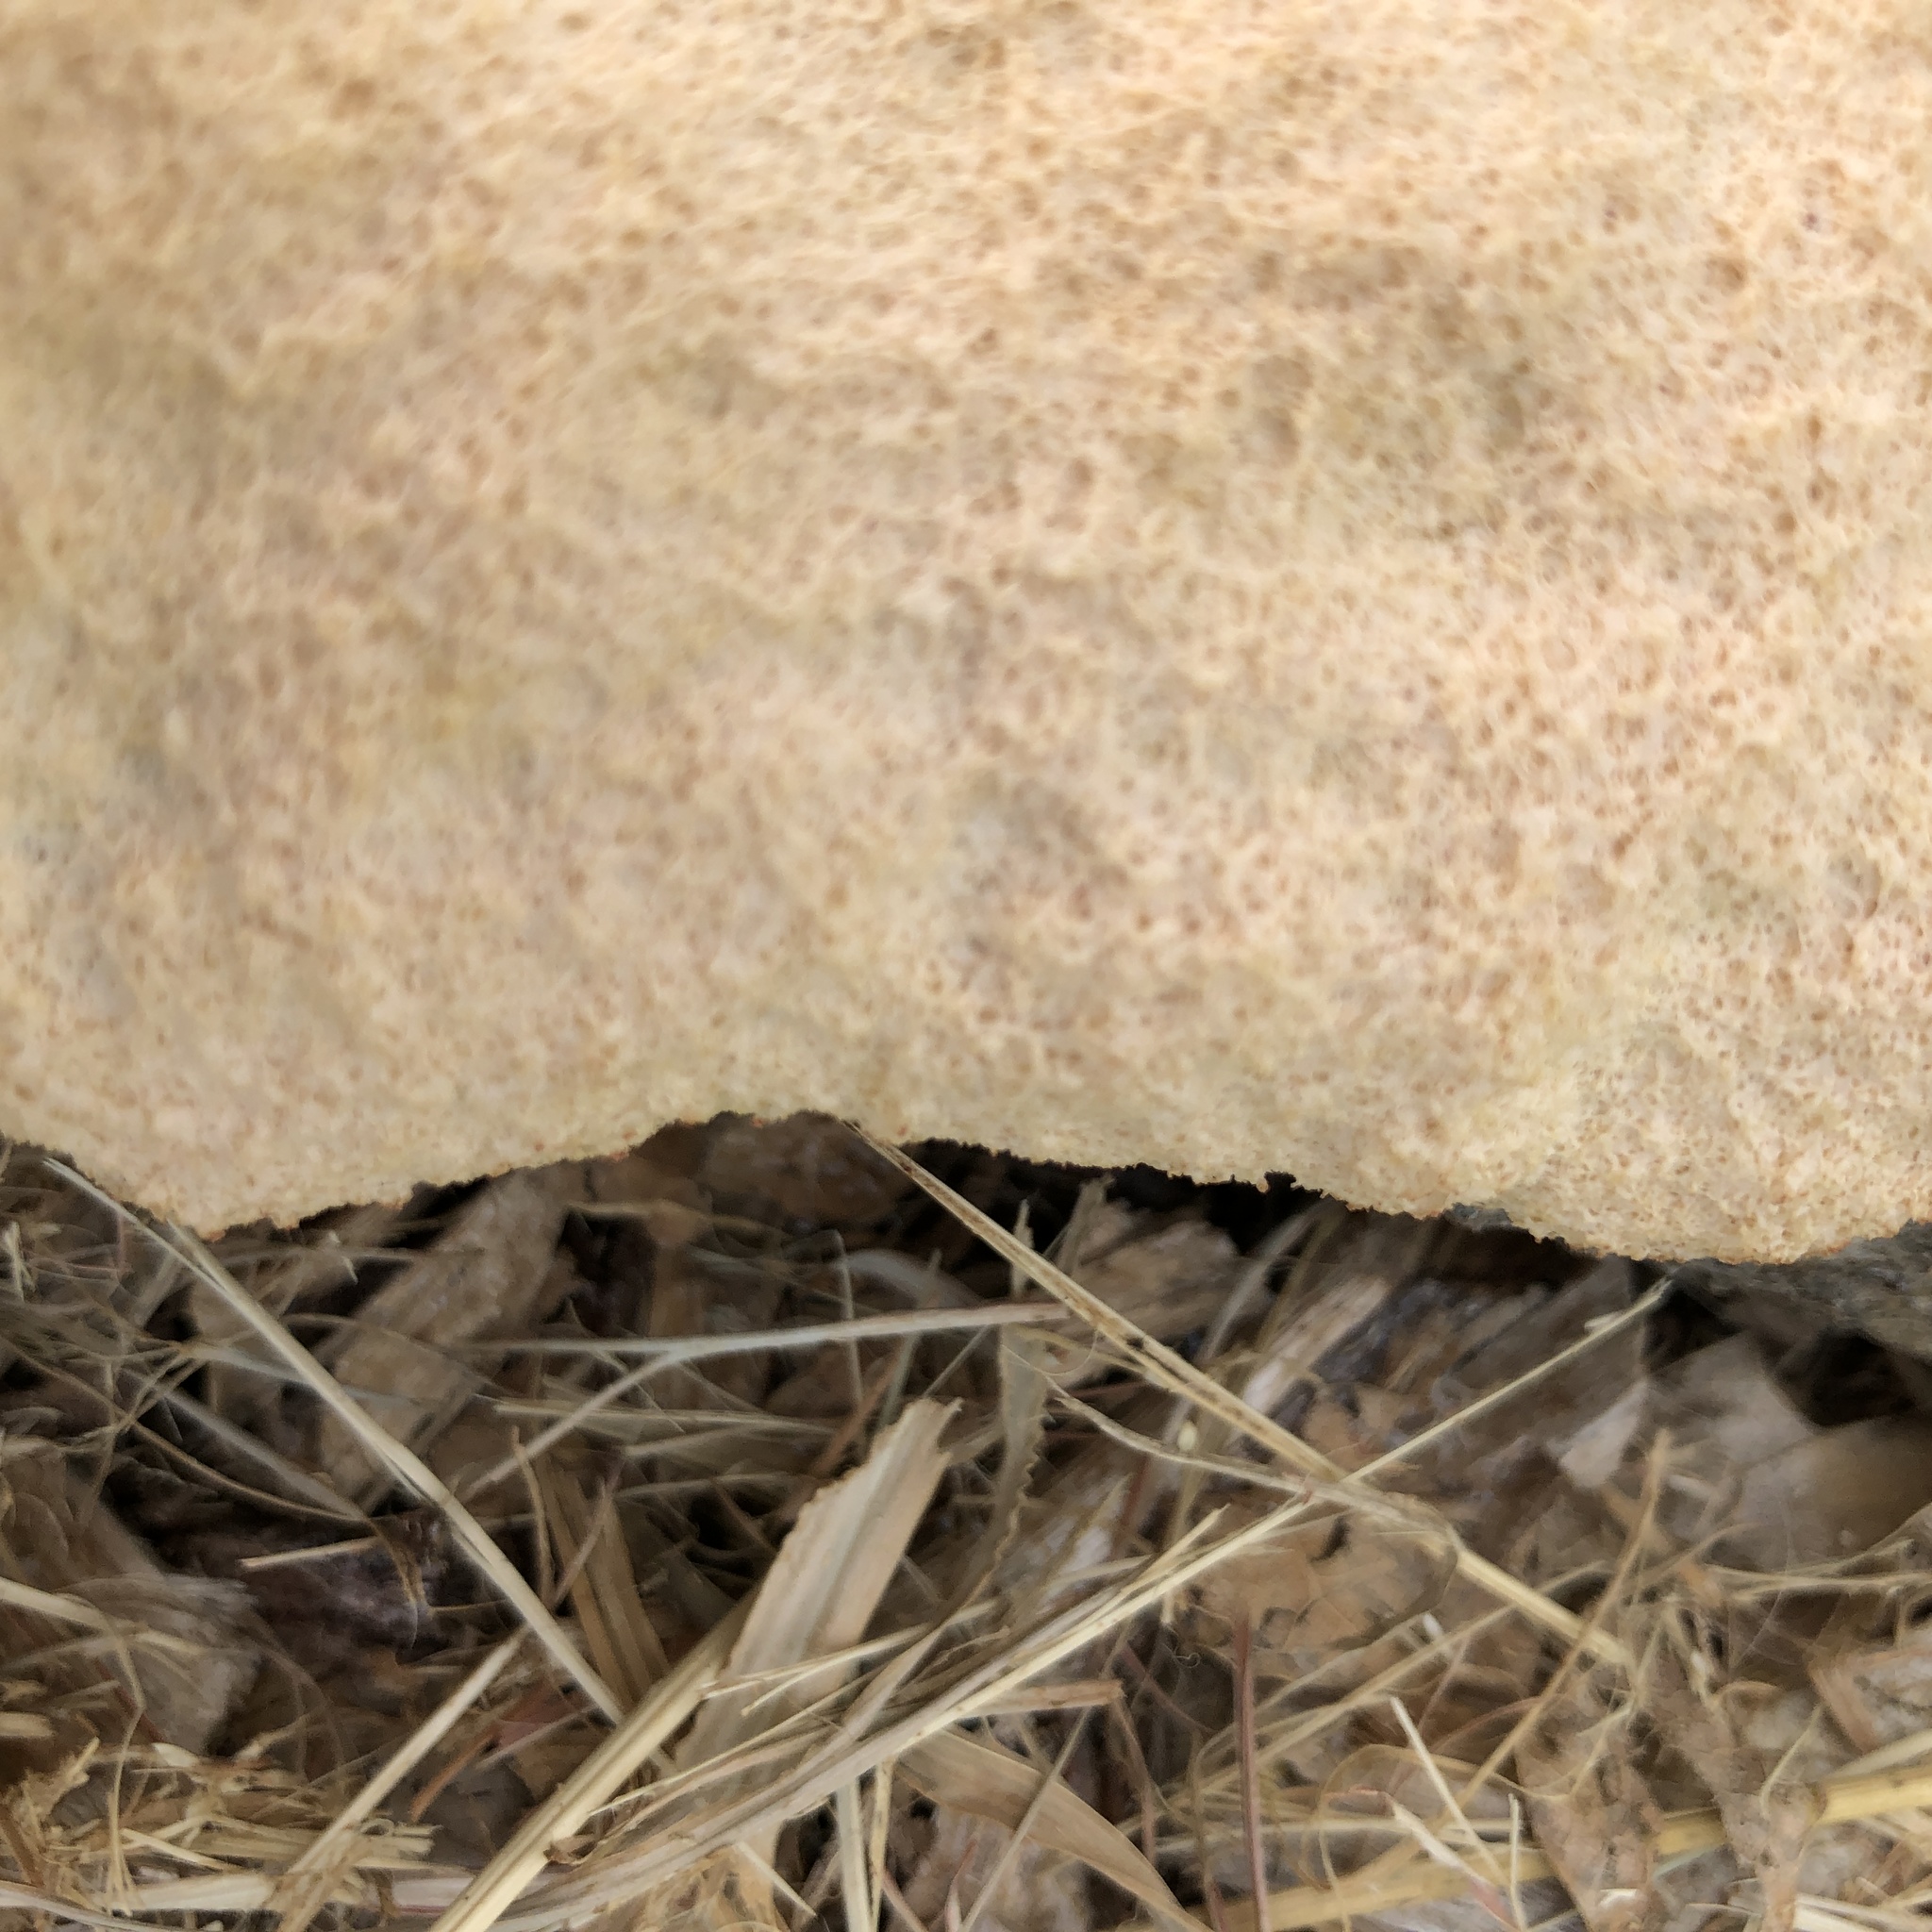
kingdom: Protozoa
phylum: Mycetozoa
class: Myxomycetes
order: Physarales
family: Physaraceae
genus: Fuligo
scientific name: Fuligo septica
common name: Dog vomit slime mold
